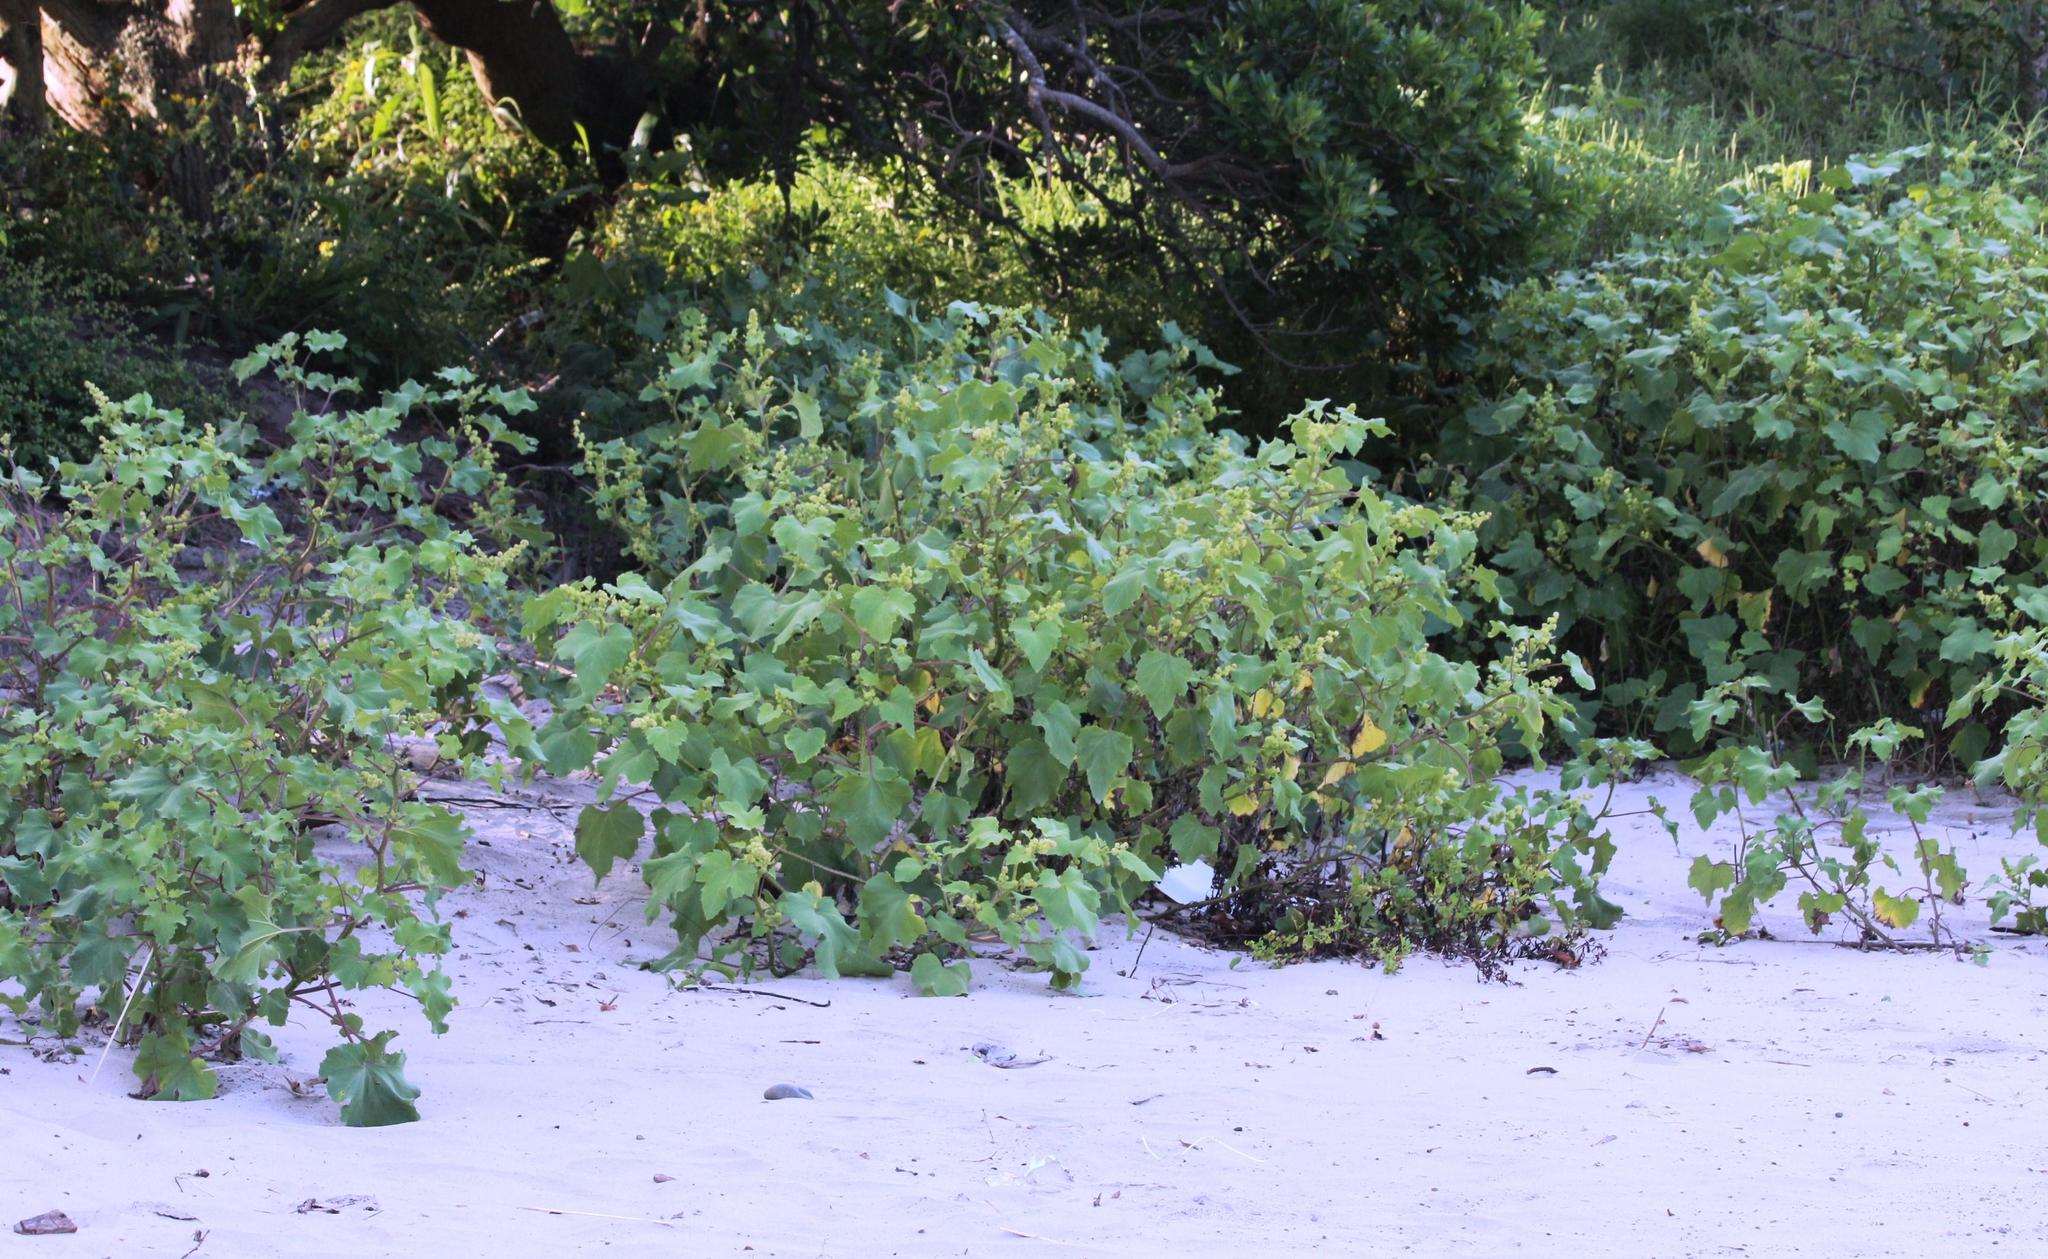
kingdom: Plantae
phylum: Tracheophyta
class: Magnoliopsida
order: Asterales
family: Asteraceae
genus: Xanthium
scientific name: Xanthium strumarium
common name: Rough cocklebur
